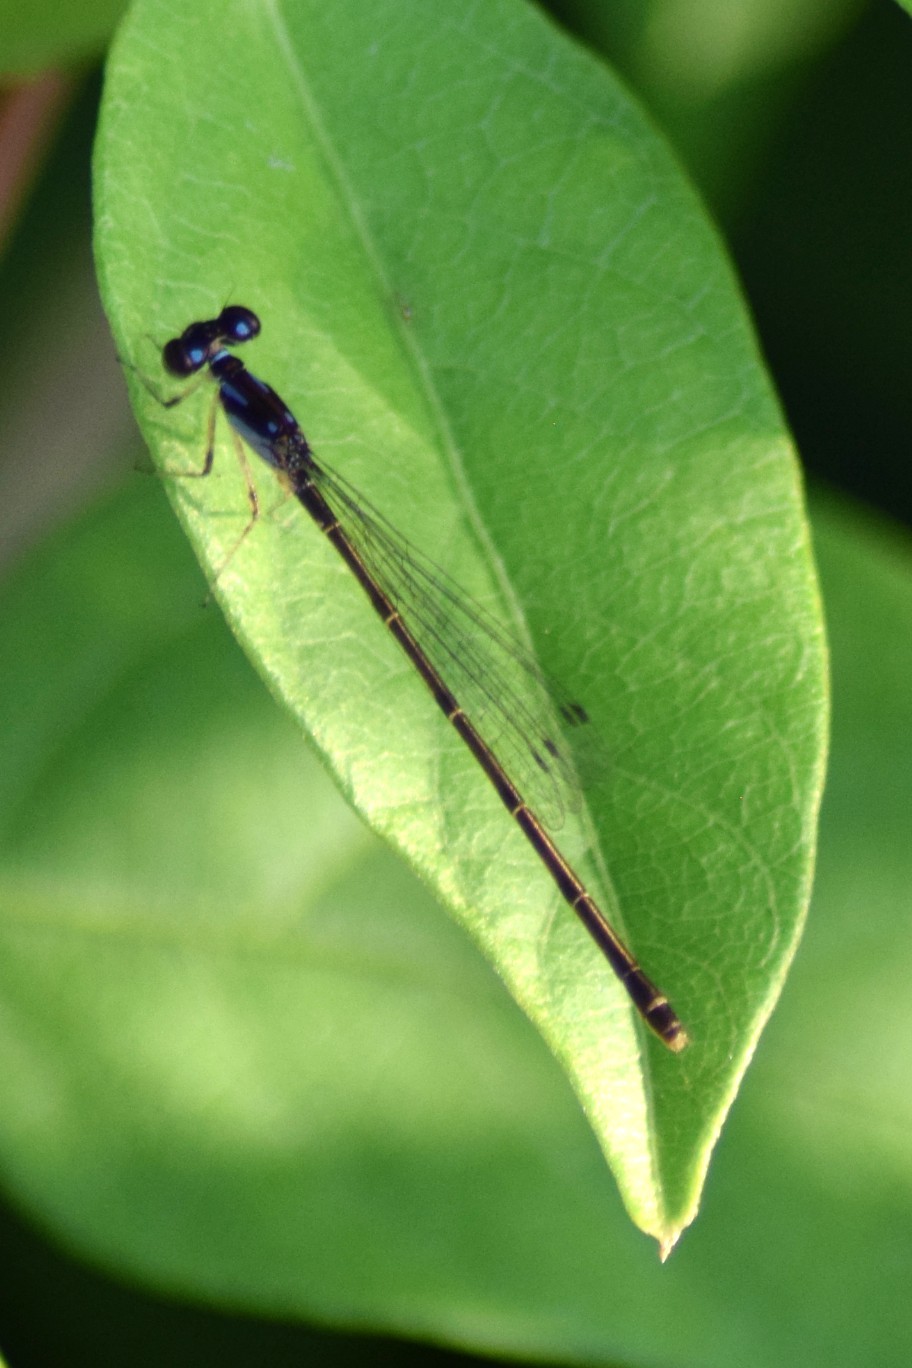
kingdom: Animalia
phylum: Arthropoda
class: Insecta
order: Odonata
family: Coenagrionidae
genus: Ischnura
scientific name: Ischnura posita
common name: Fragile forktail
